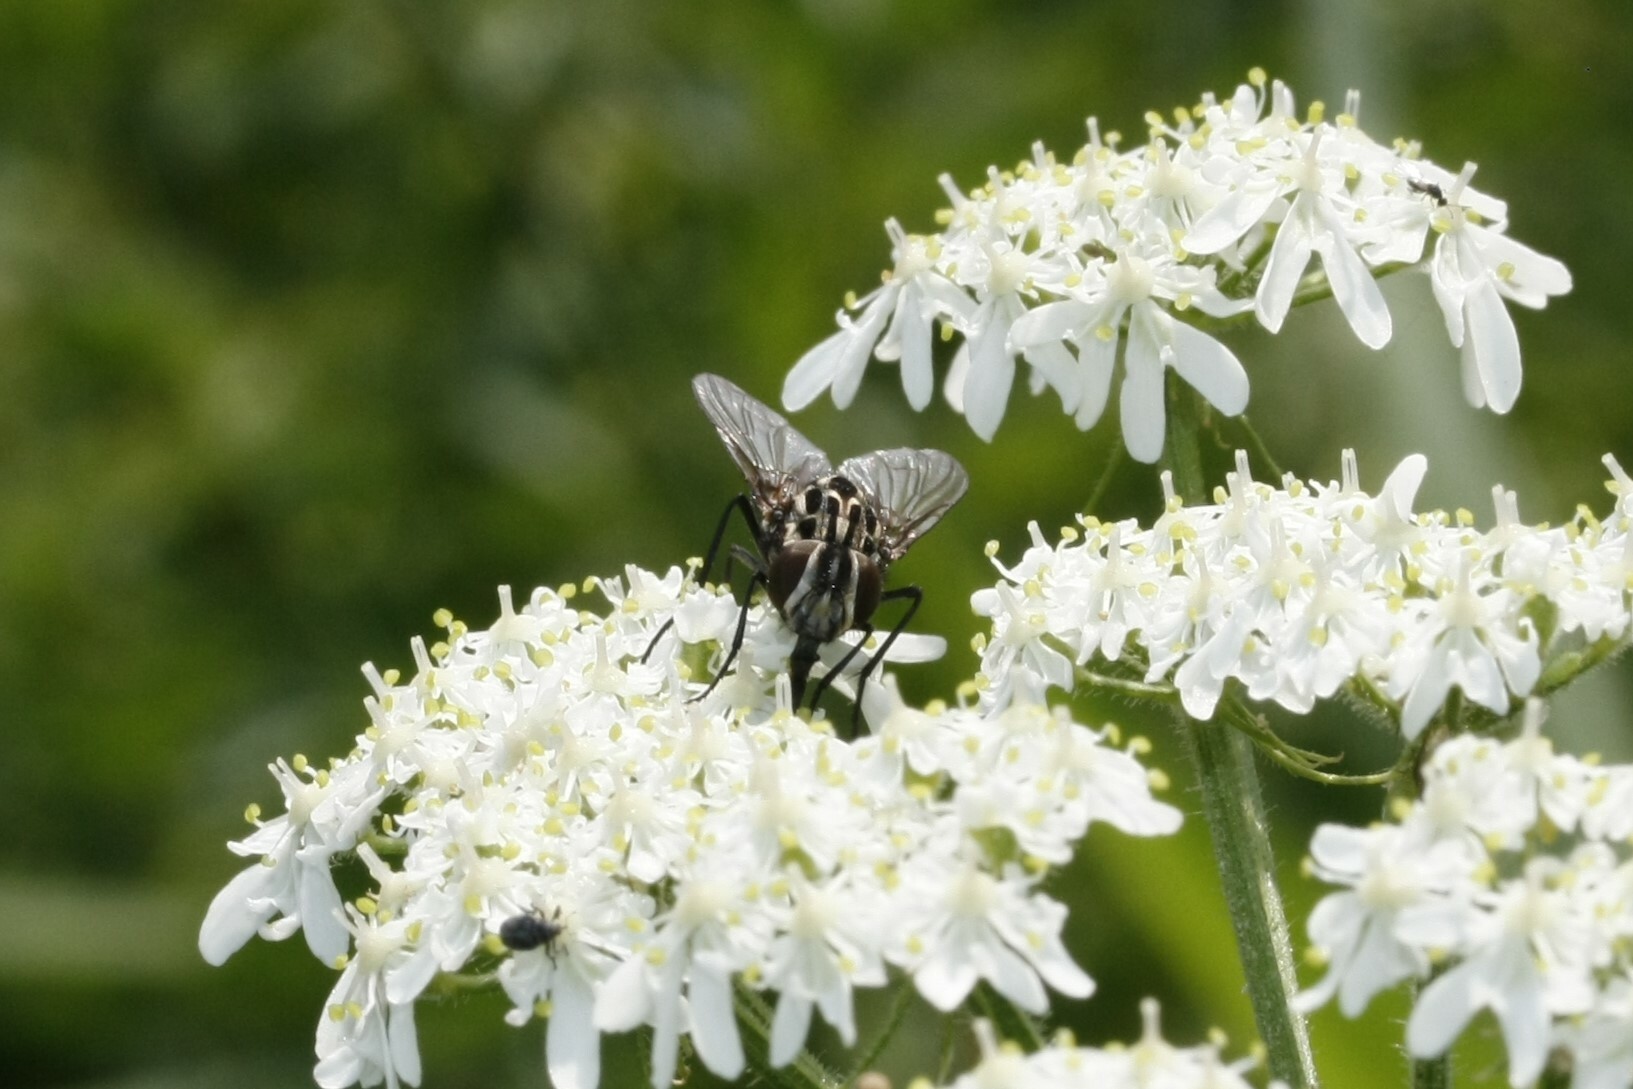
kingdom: Animalia
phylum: Arthropoda
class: Insecta
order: Diptera
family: Muscidae
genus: Graphomya
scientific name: Graphomya maculata
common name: Muscid fly
